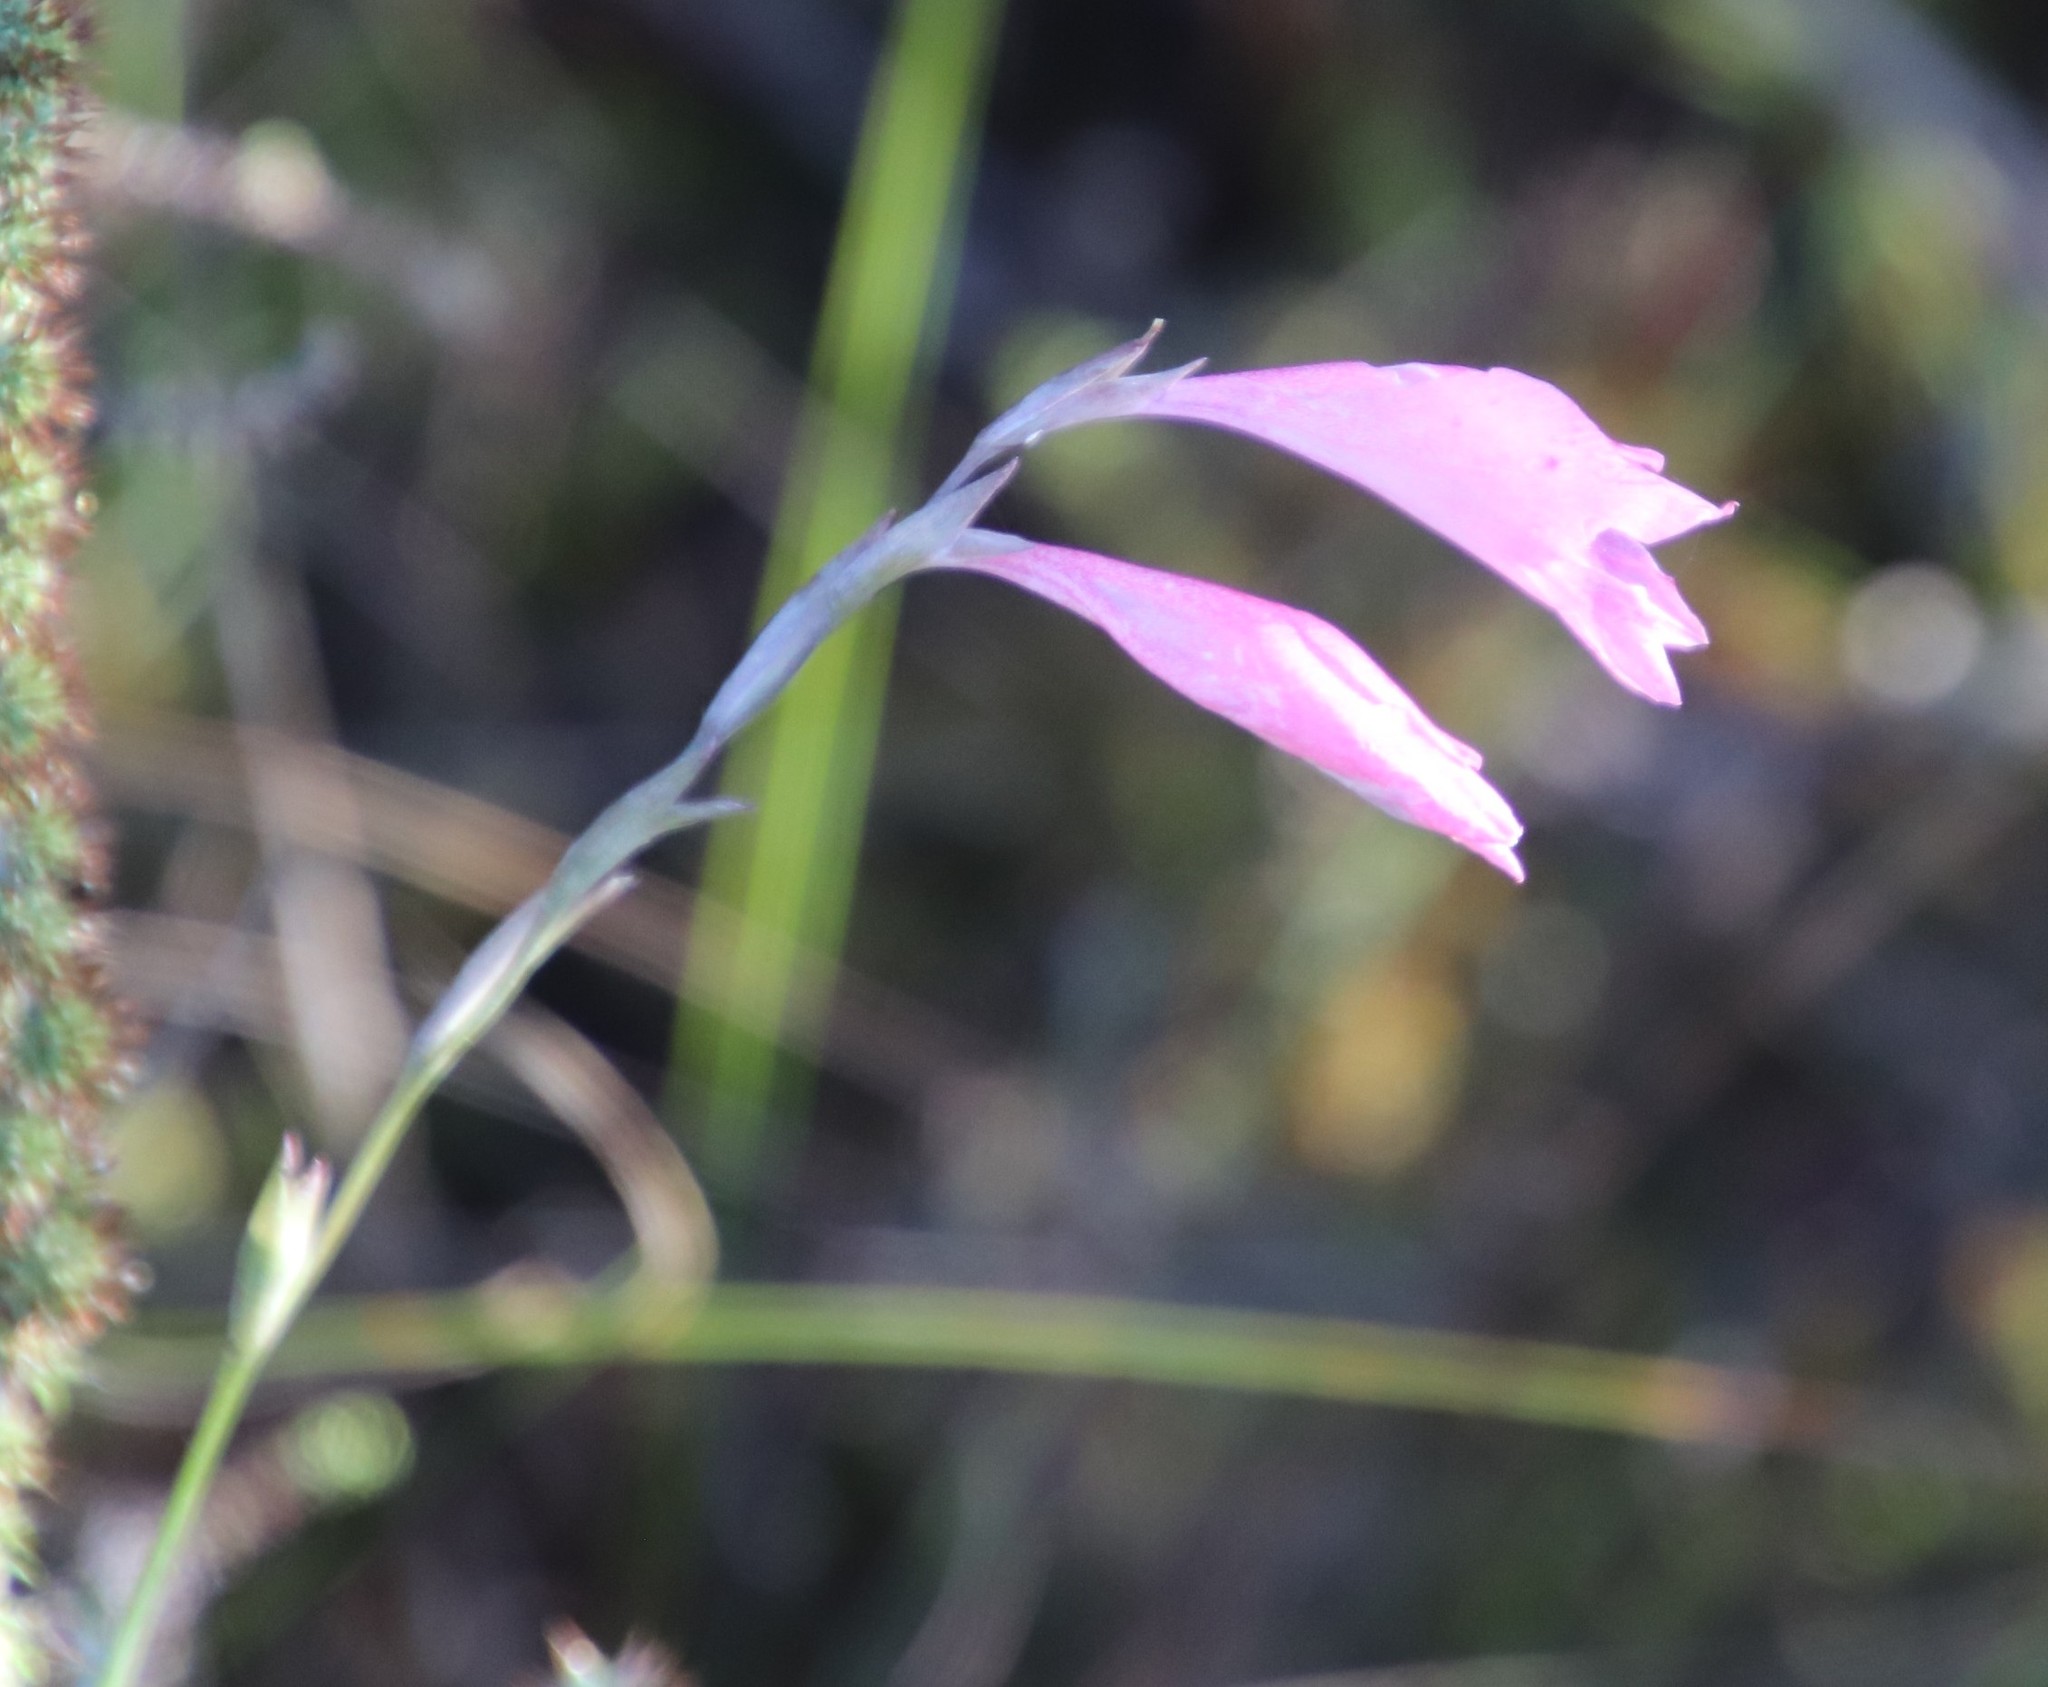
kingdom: Plantae
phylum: Tracheophyta
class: Liliopsida
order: Asparagales
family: Iridaceae
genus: Gladiolus
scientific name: Gladiolus brevifolius
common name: March pypie
